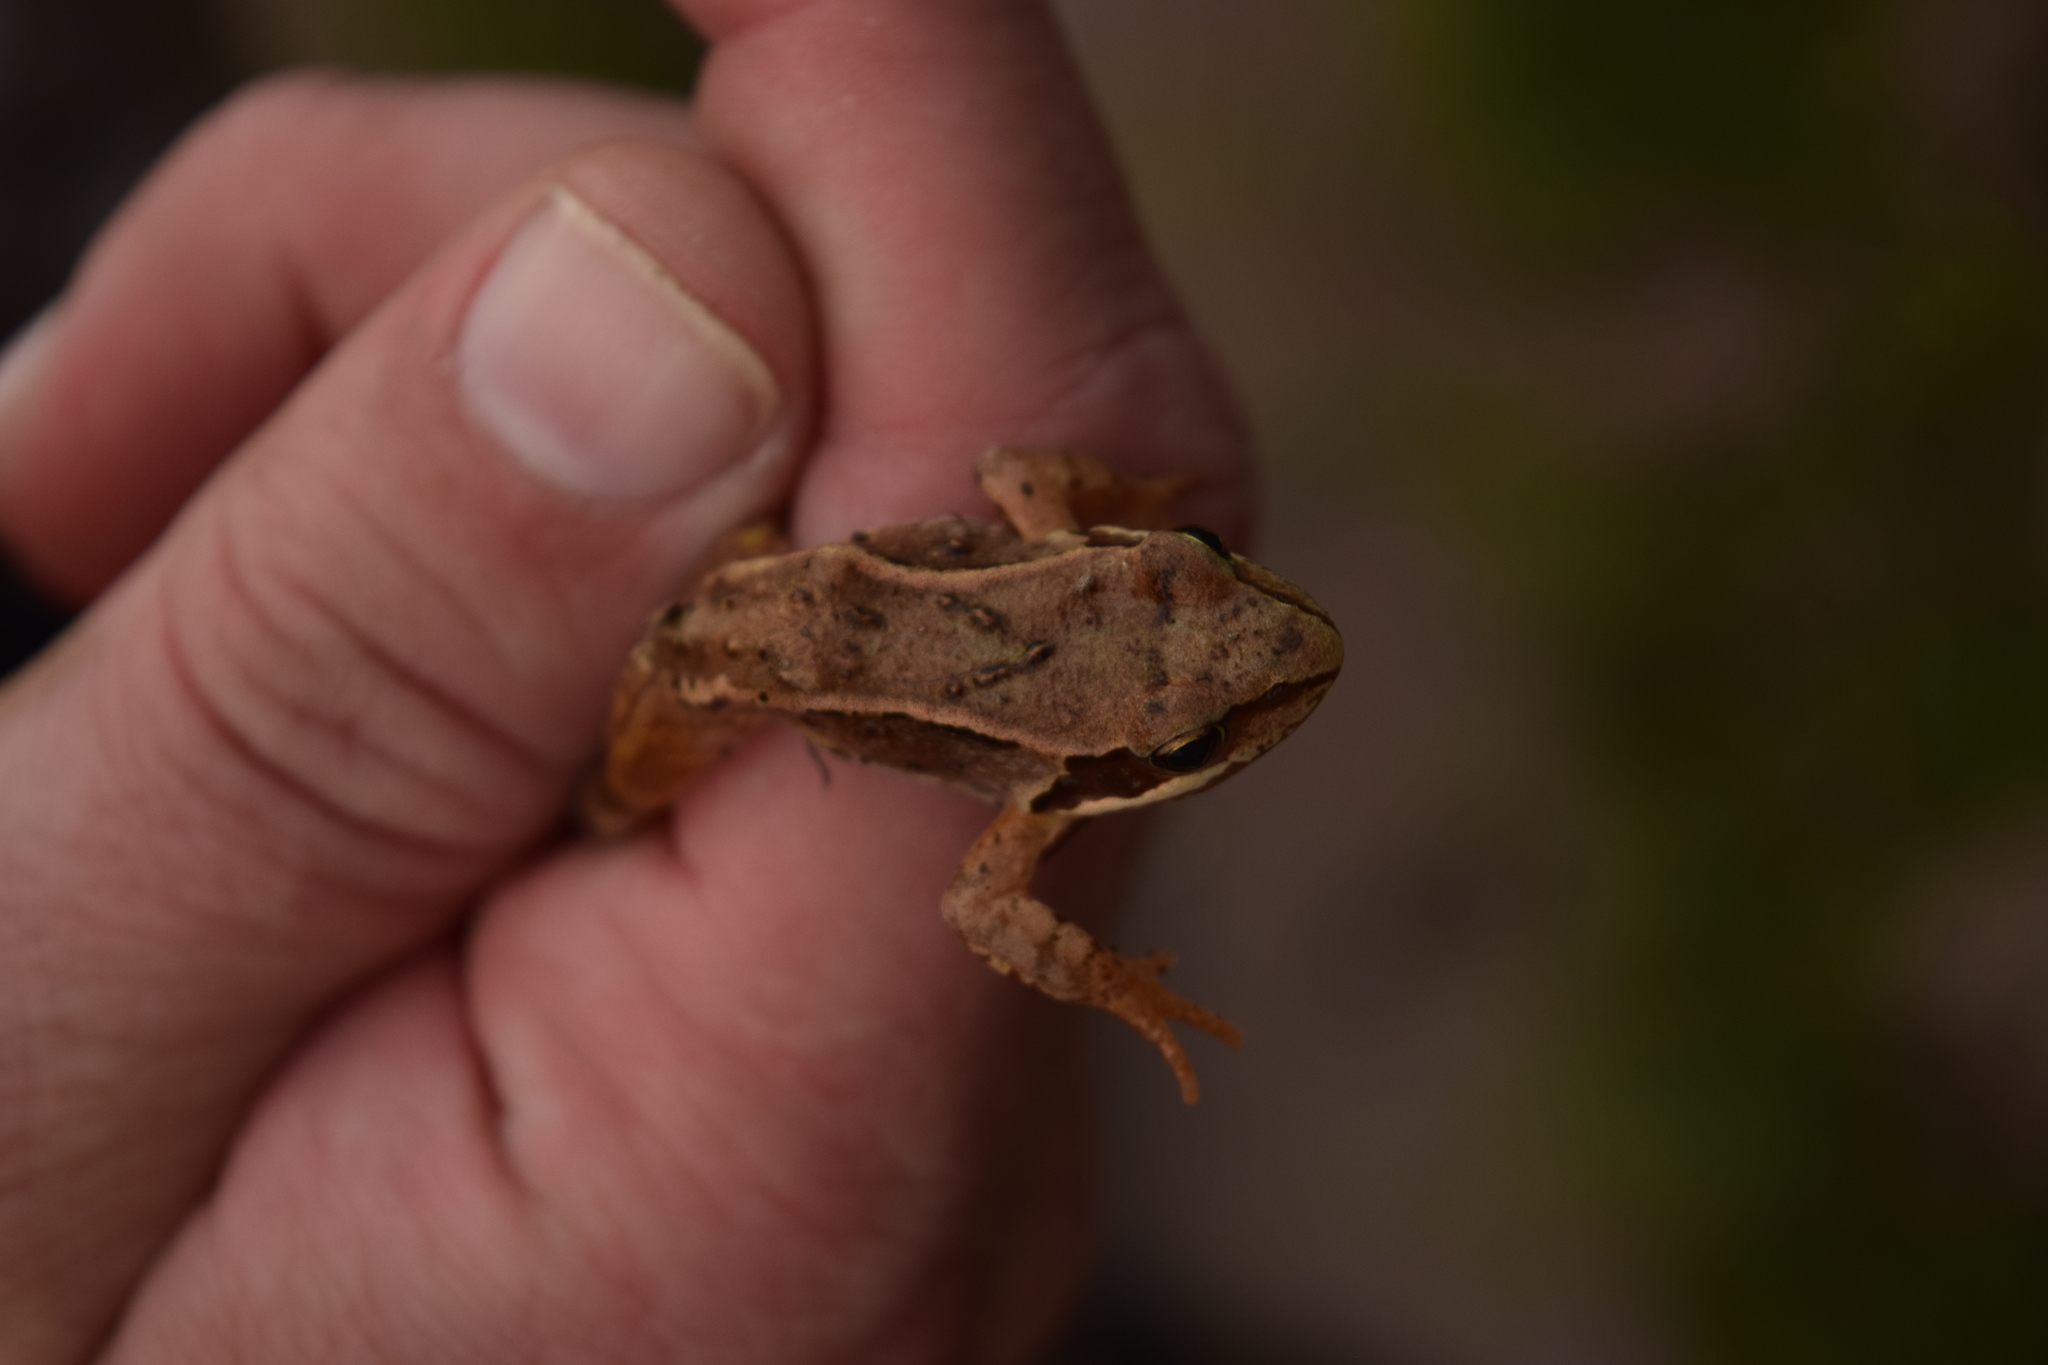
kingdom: Animalia
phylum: Chordata
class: Amphibia
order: Anura
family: Ranidae
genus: Rana
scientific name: Rana temporaria
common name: Common frog
